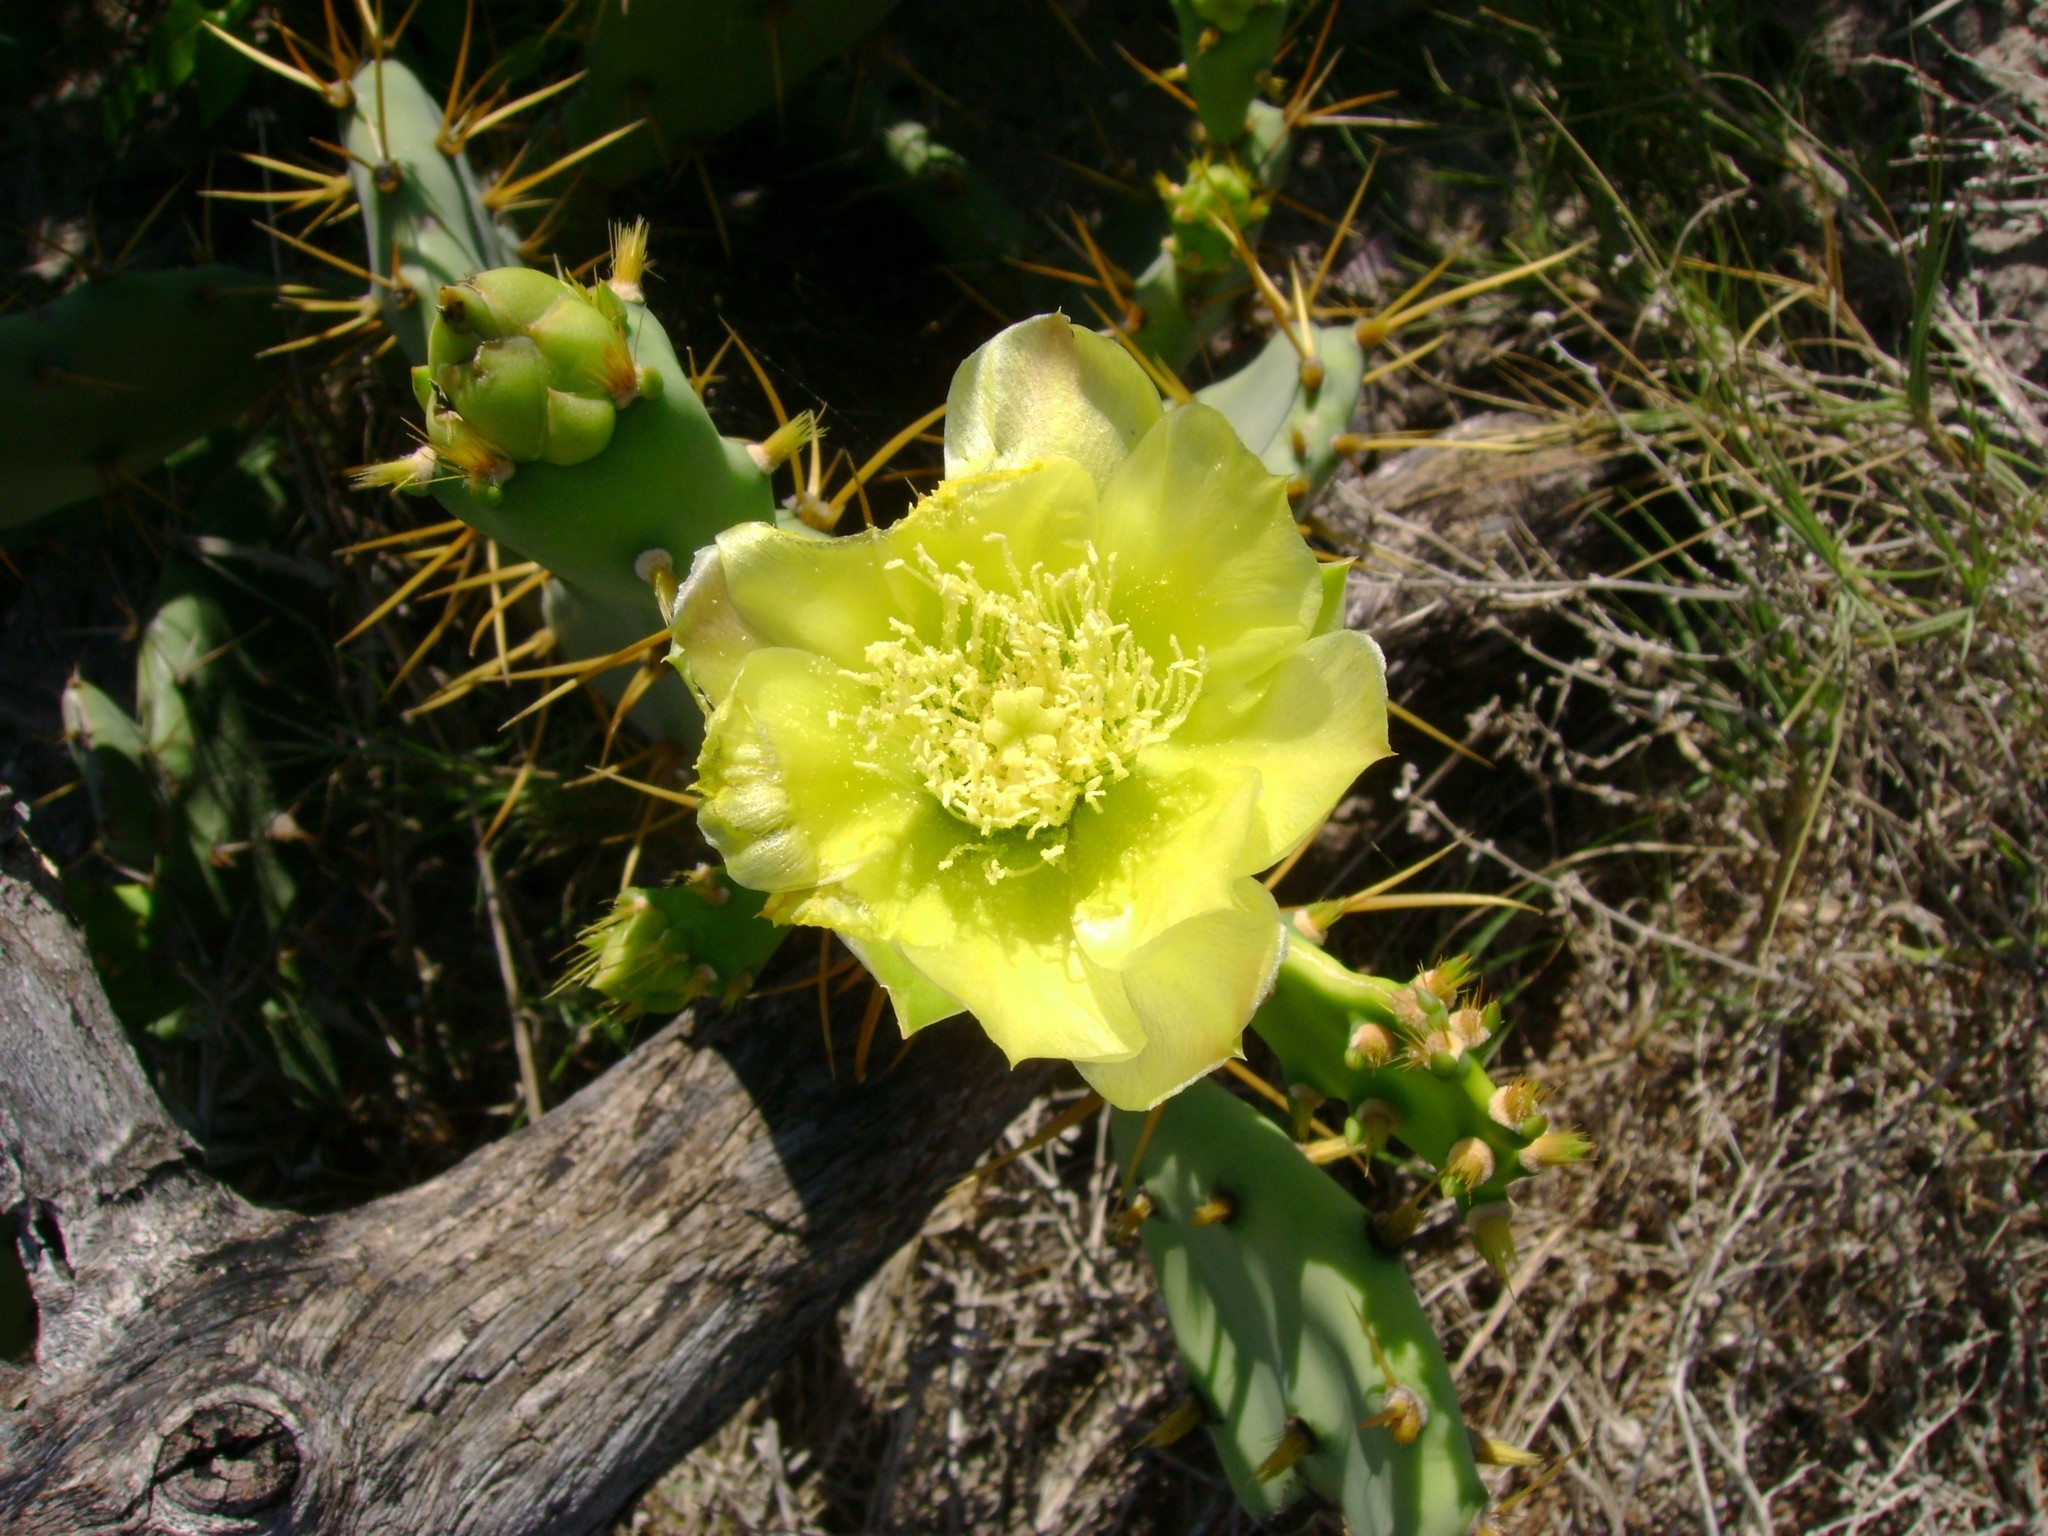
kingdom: Plantae
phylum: Tracheophyta
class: Magnoliopsida
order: Caryophyllales
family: Cactaceae
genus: Opuntia
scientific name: Opuntia stricta
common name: Erect pricklypear
